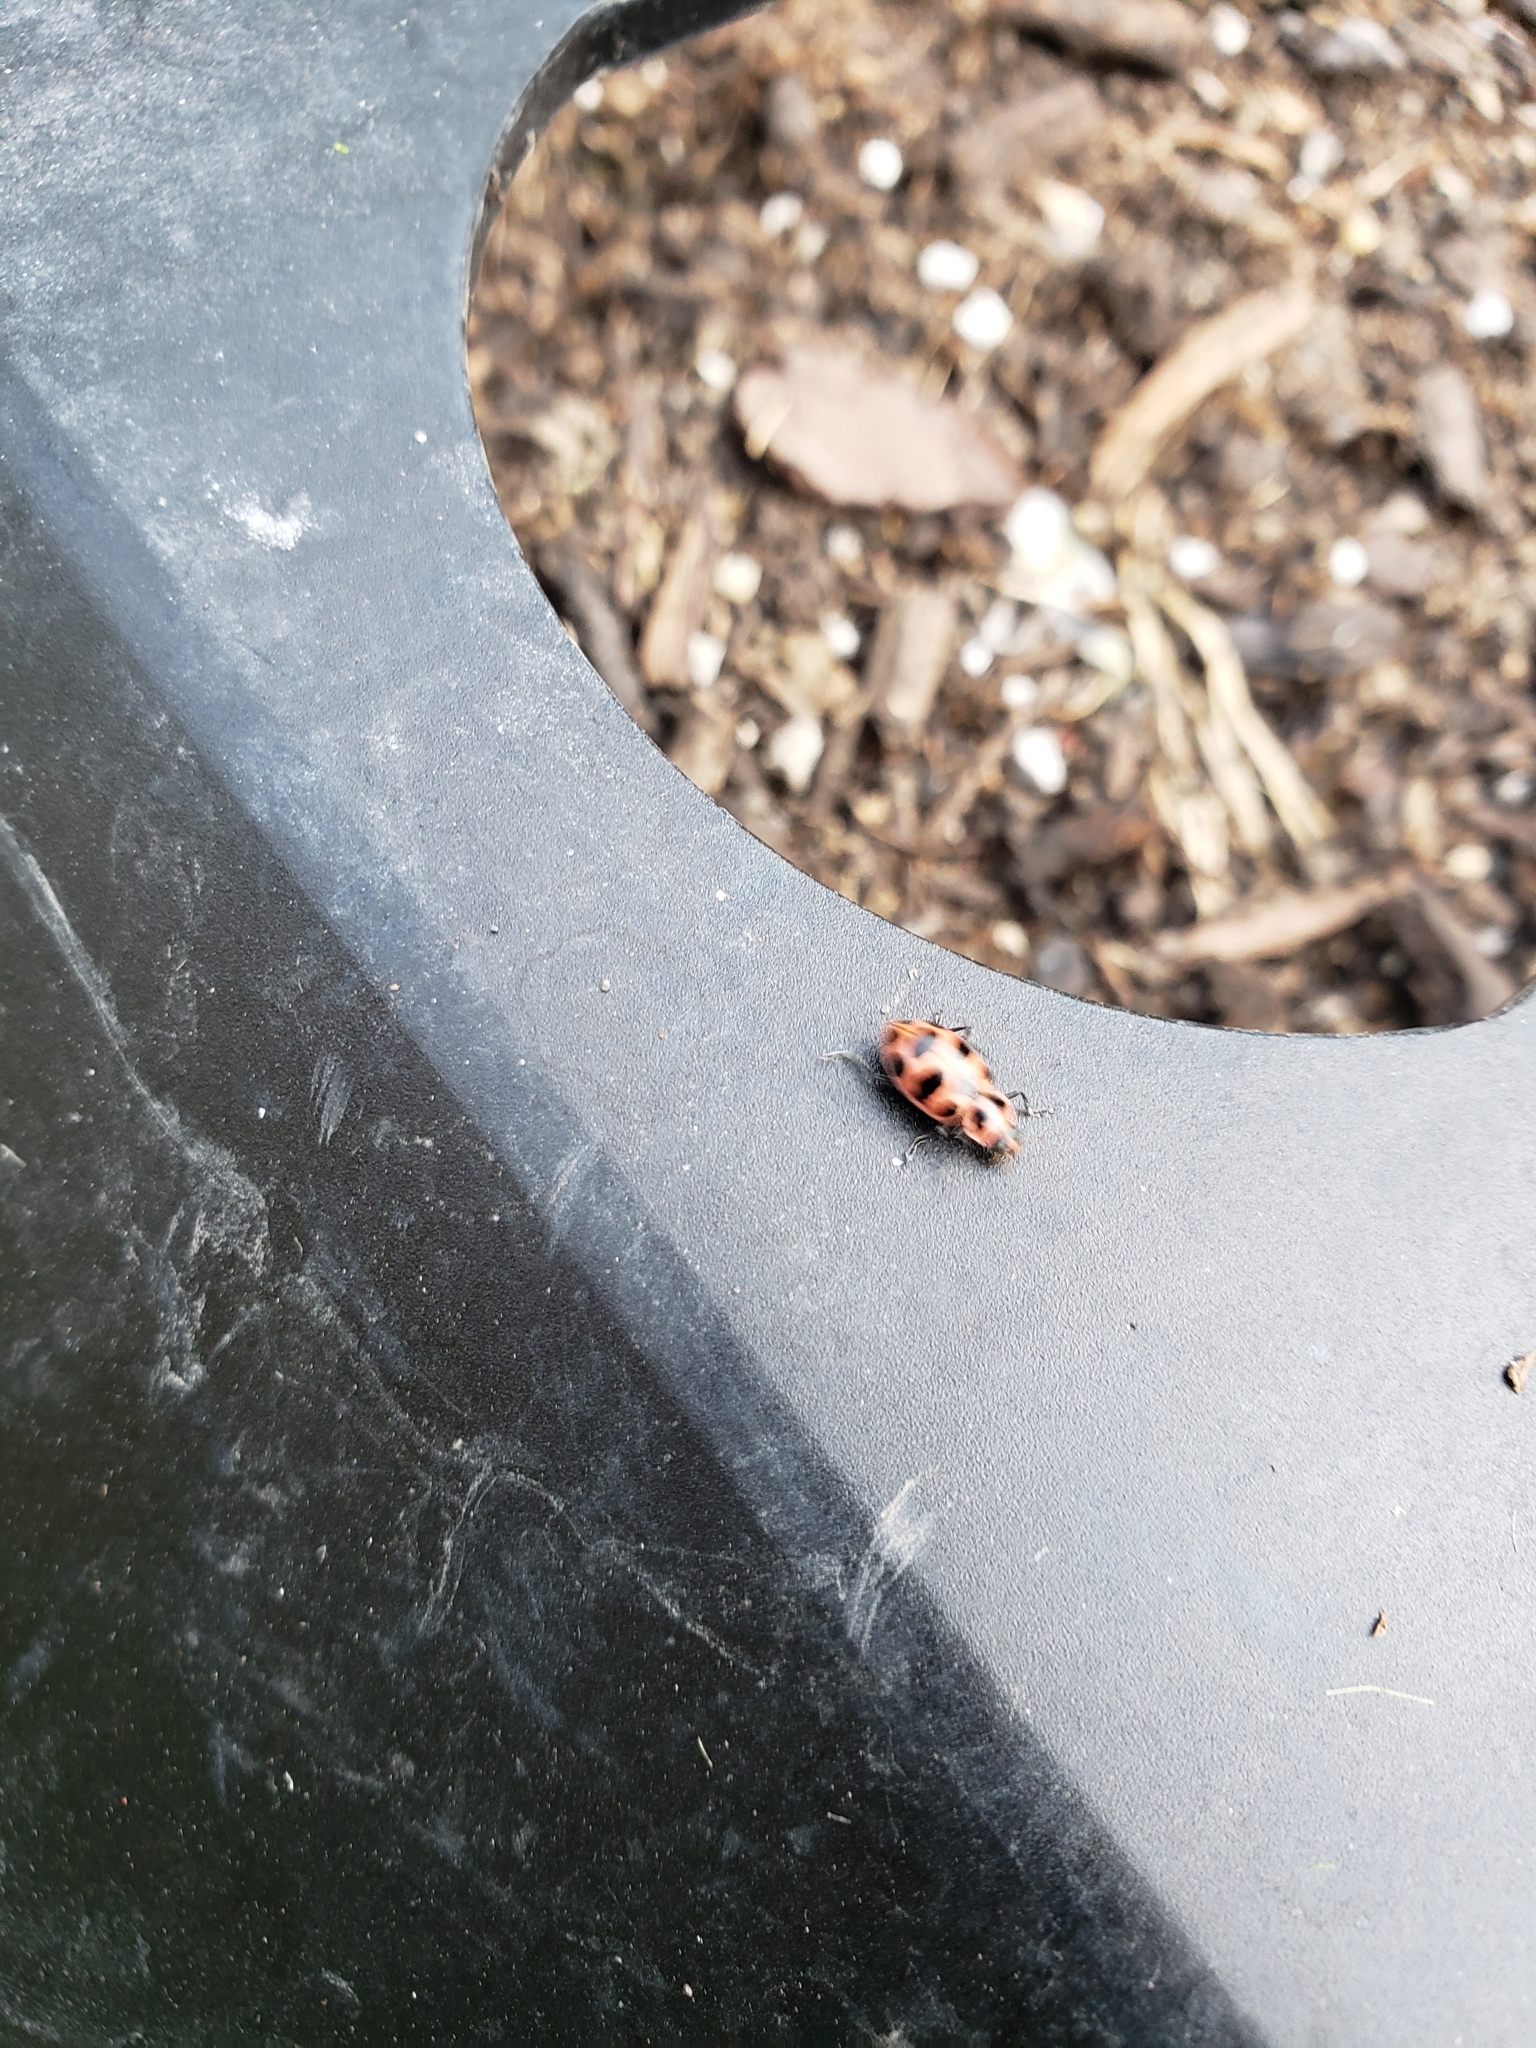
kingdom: Animalia
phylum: Arthropoda
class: Insecta
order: Coleoptera
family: Coccinellidae
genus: Coleomegilla
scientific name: Coleomegilla maculata
